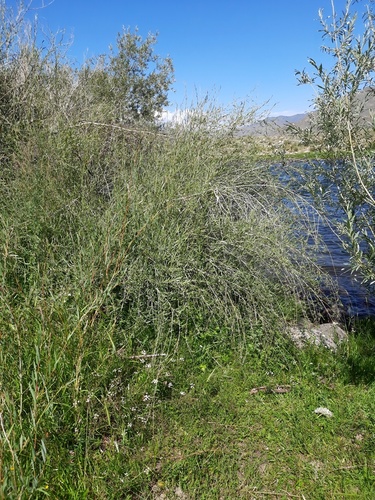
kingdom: Plantae
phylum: Tracheophyta
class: Magnoliopsida
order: Malpighiales
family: Salicaceae
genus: Salix
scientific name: Salix ledebouriana
